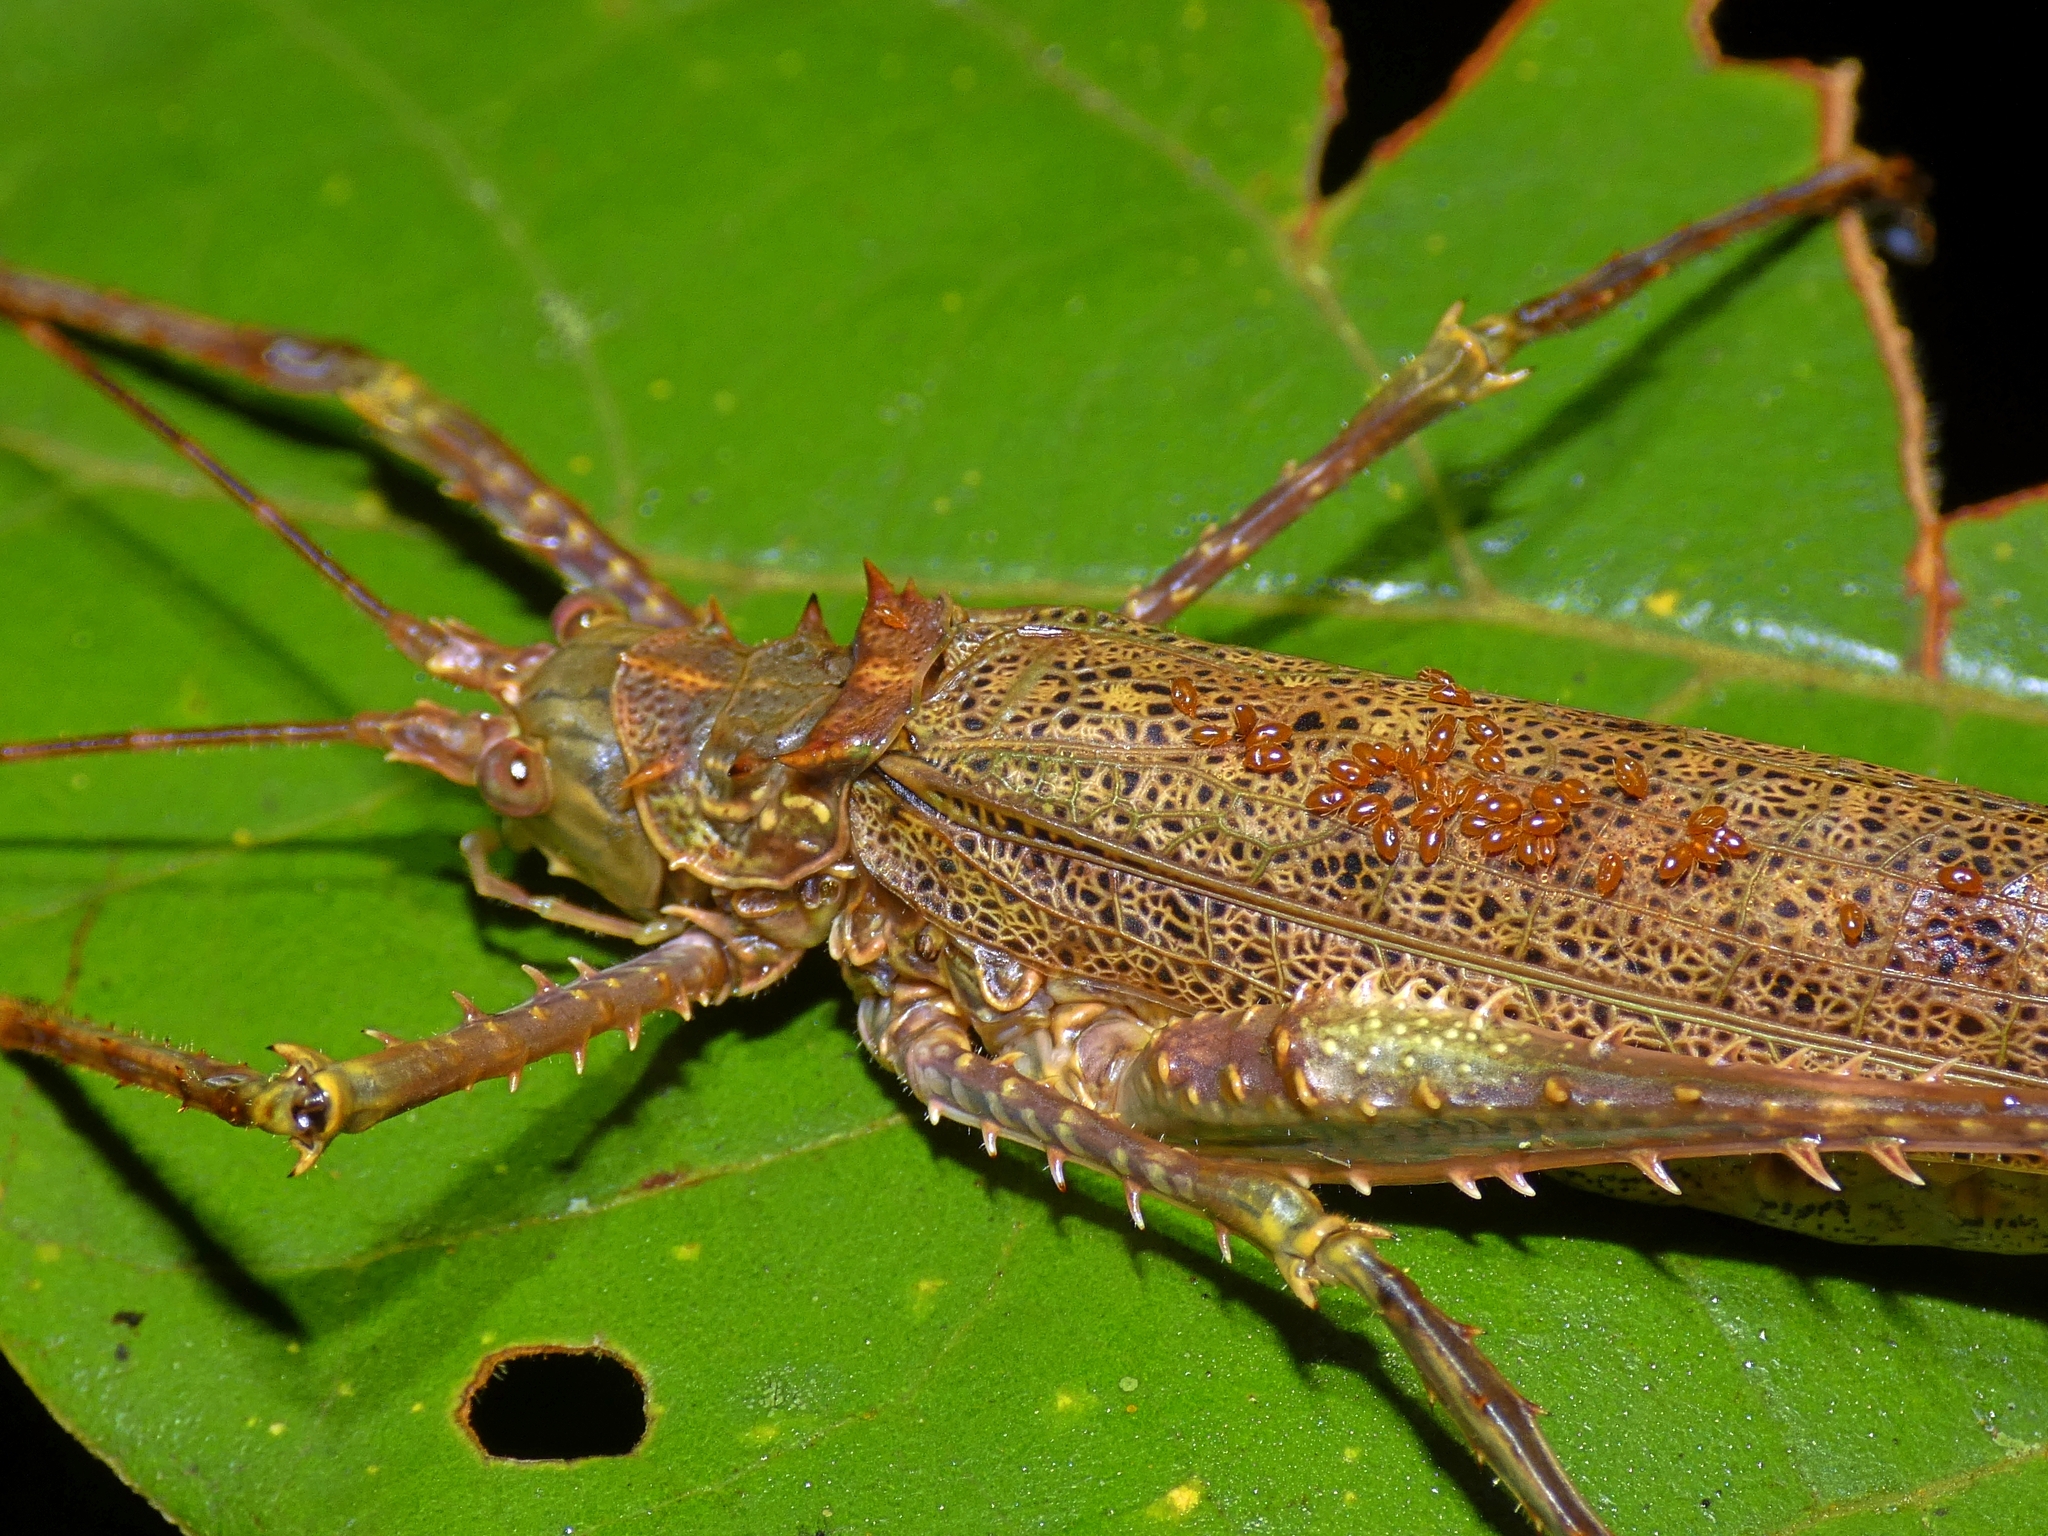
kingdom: Animalia
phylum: Arthropoda
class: Insecta
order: Orthoptera
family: Tettigoniidae
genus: Phricta
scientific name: Phricta spinosa
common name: Giant spiny forest katydid
